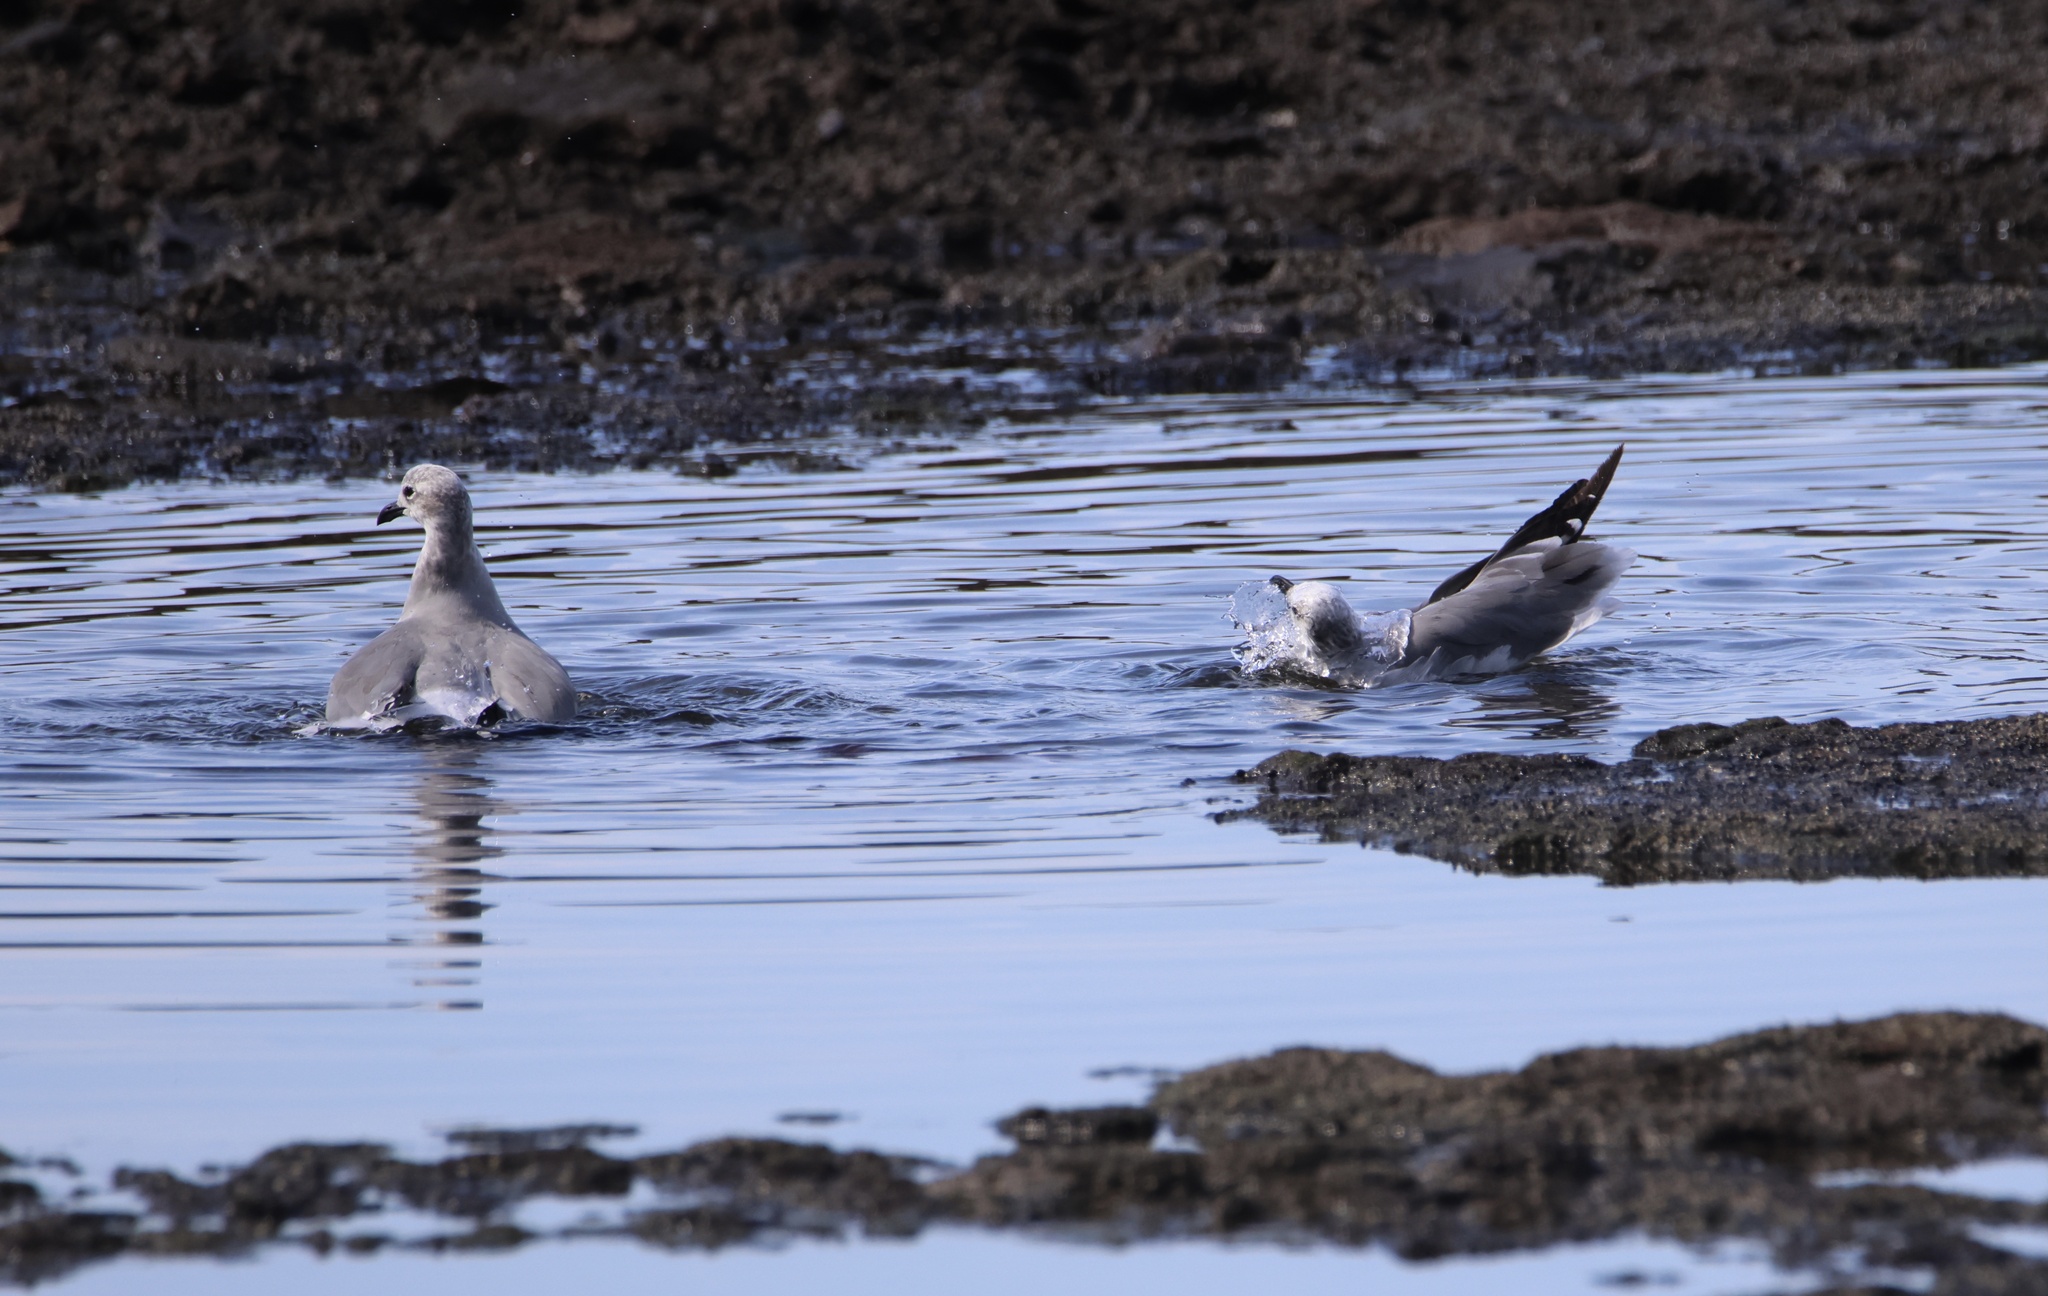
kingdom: Animalia
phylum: Chordata
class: Aves
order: Charadriiformes
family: Laridae
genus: Leucophaeus
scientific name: Leucophaeus atricilla
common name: Laughing gull
